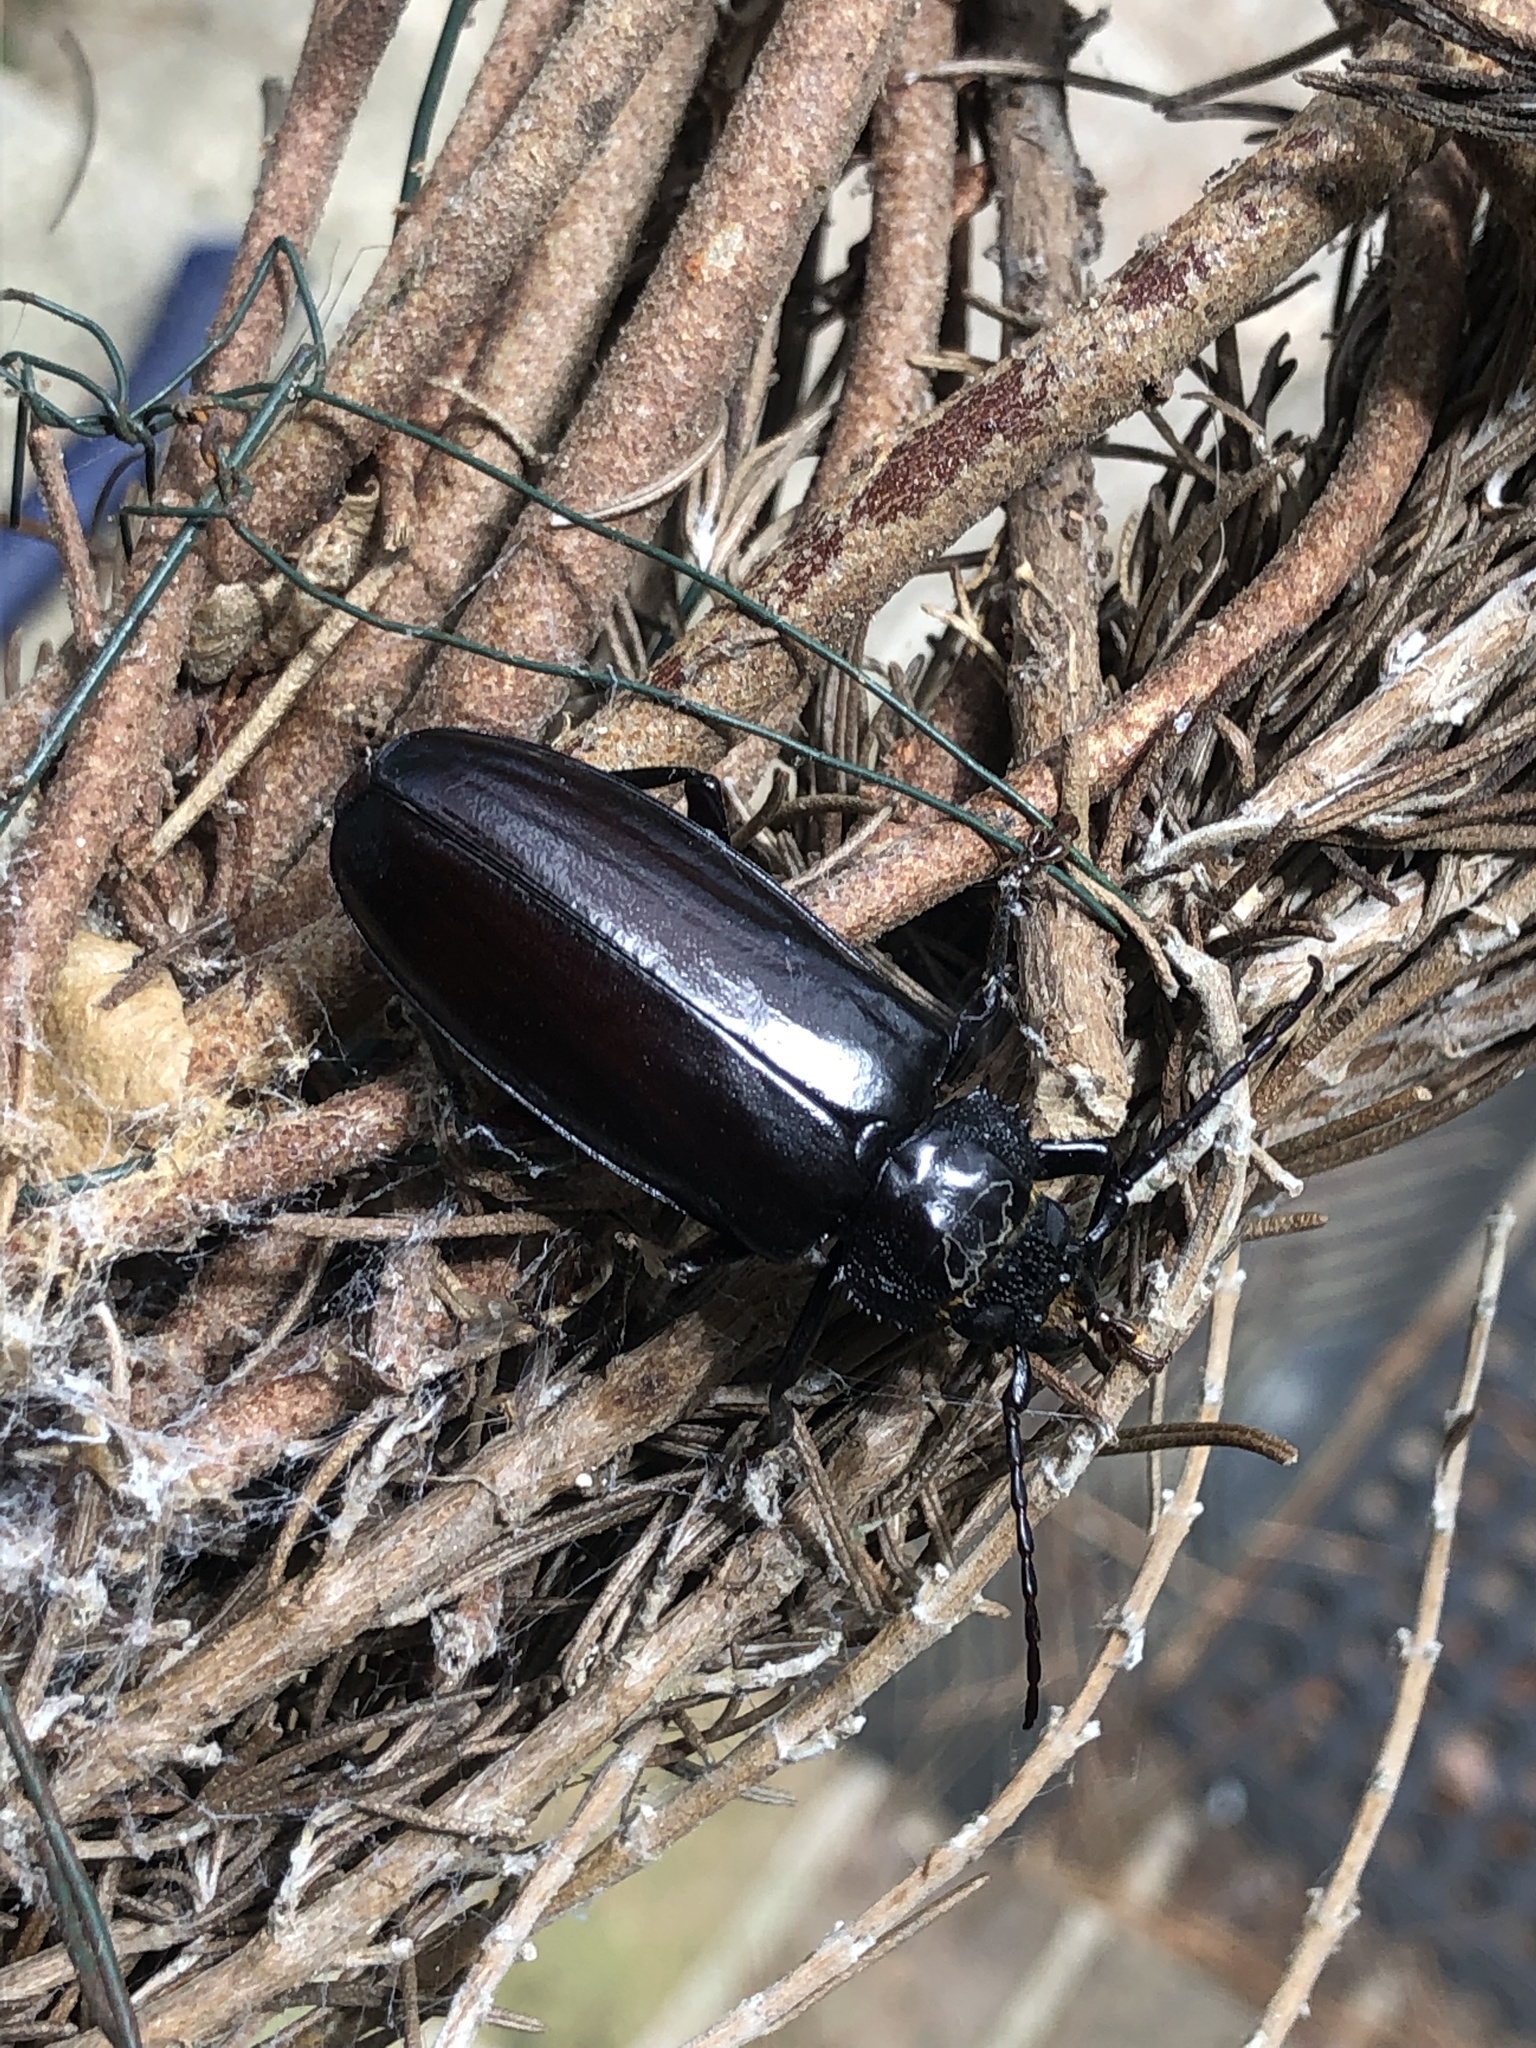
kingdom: Animalia
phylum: Arthropoda
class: Insecta
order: Coleoptera
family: Cerambycidae
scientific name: Cerambycidae
